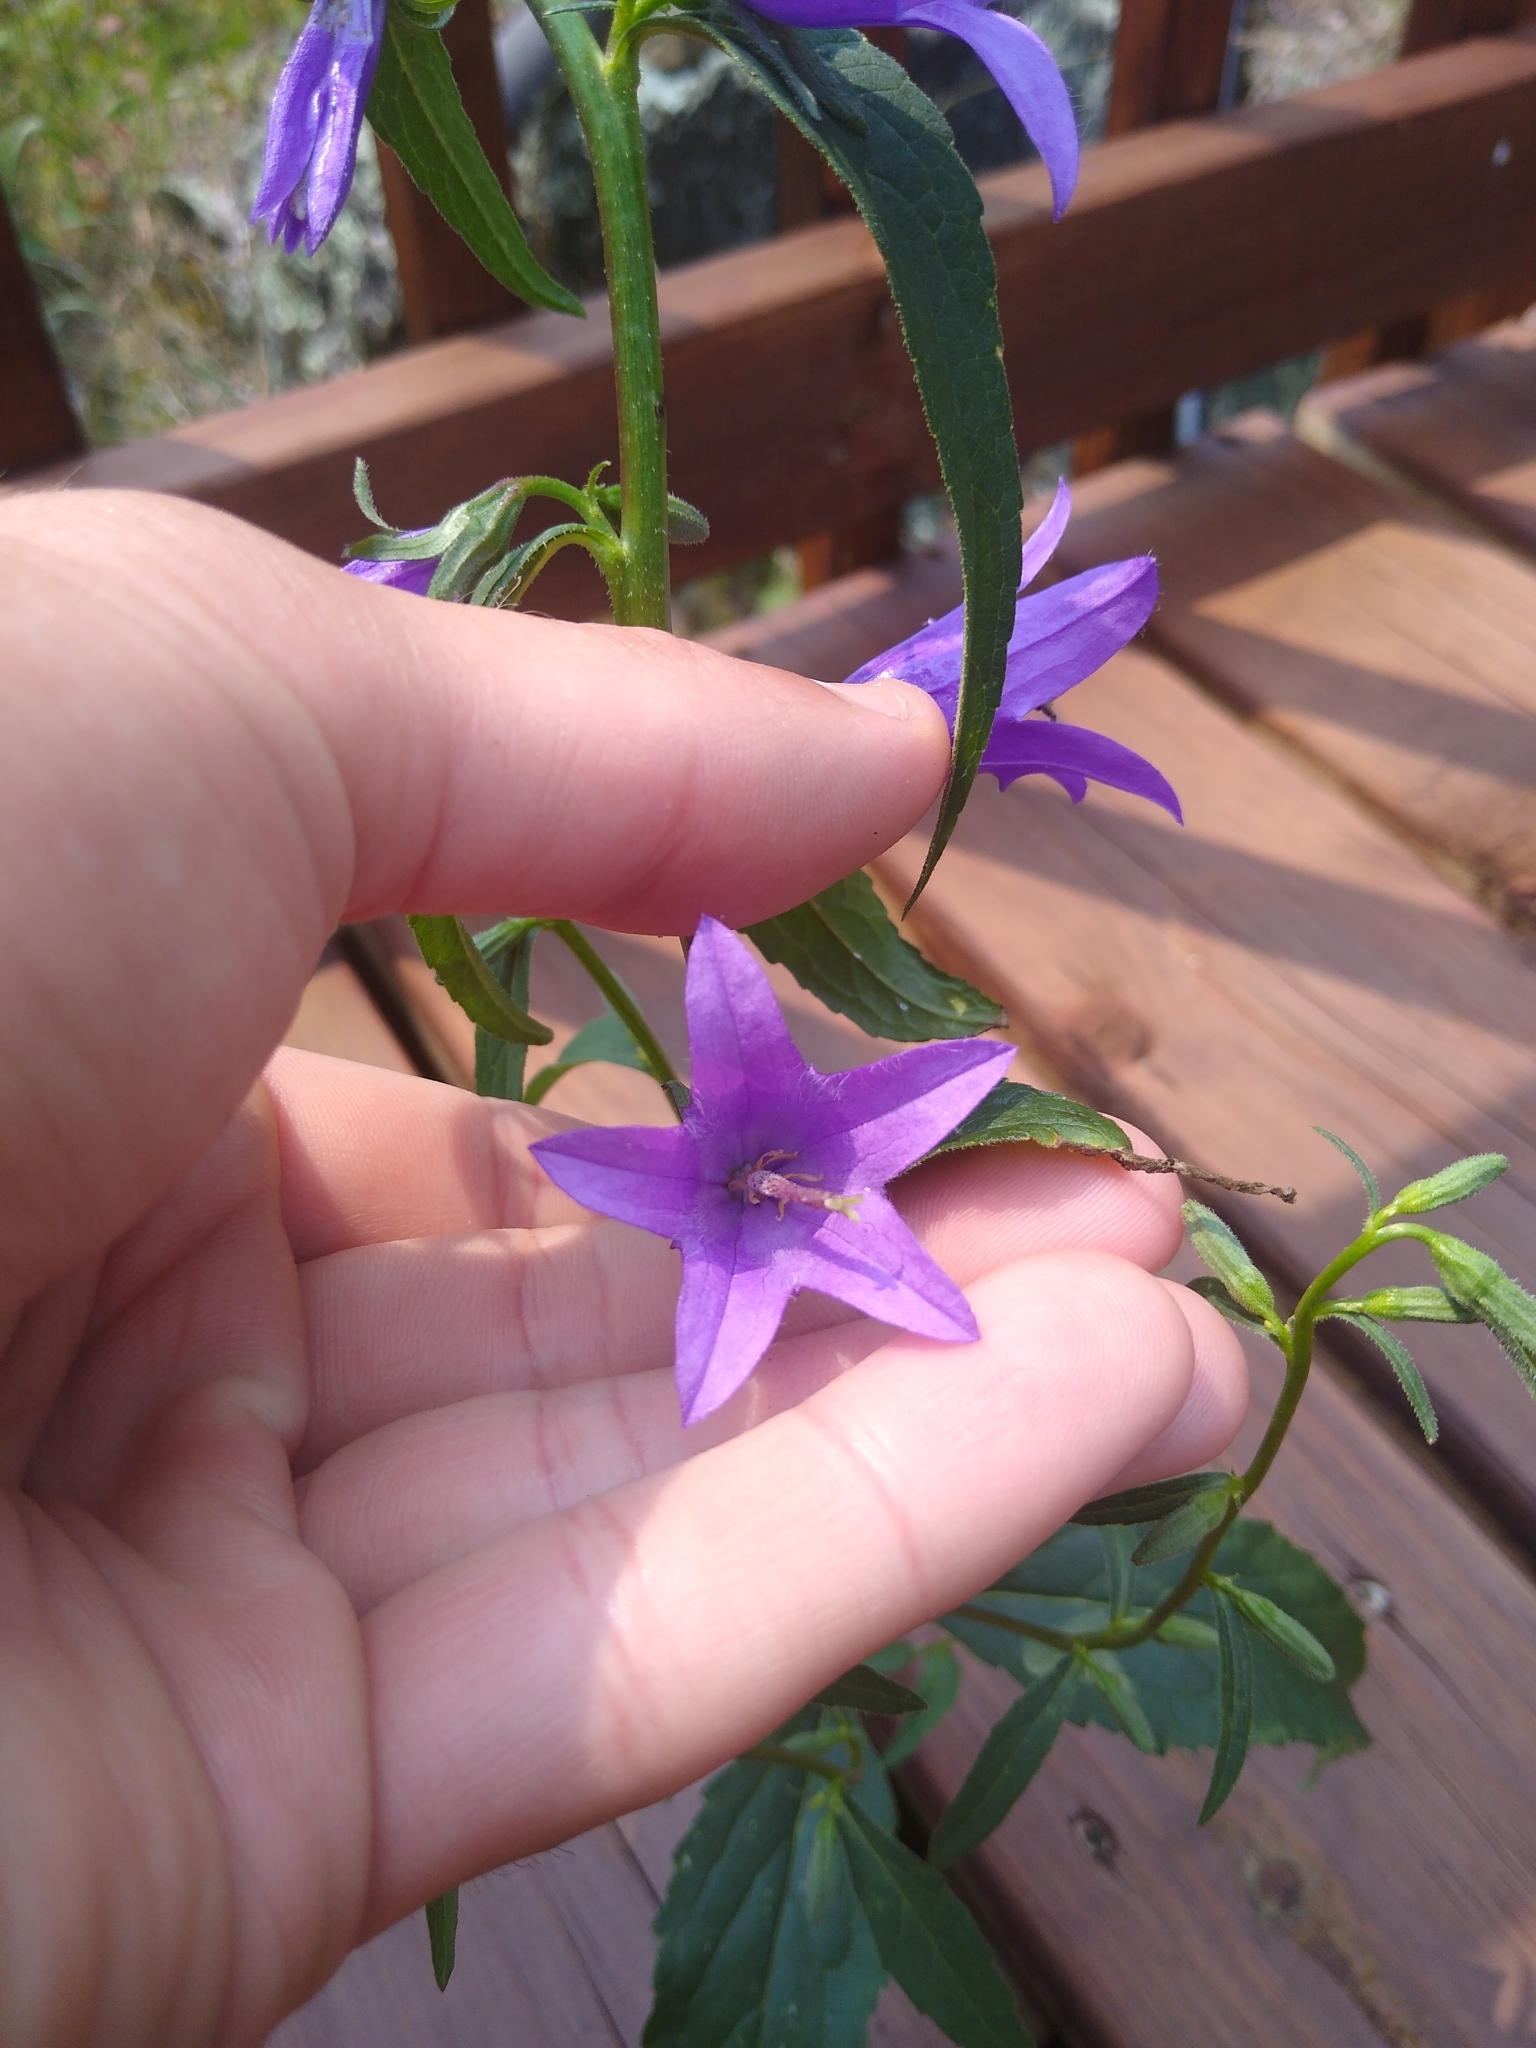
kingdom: Plantae
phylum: Tracheophyta
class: Magnoliopsida
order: Asterales
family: Campanulaceae
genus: Campanula
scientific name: Campanula rapunculoides
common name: Creeping bellflower
